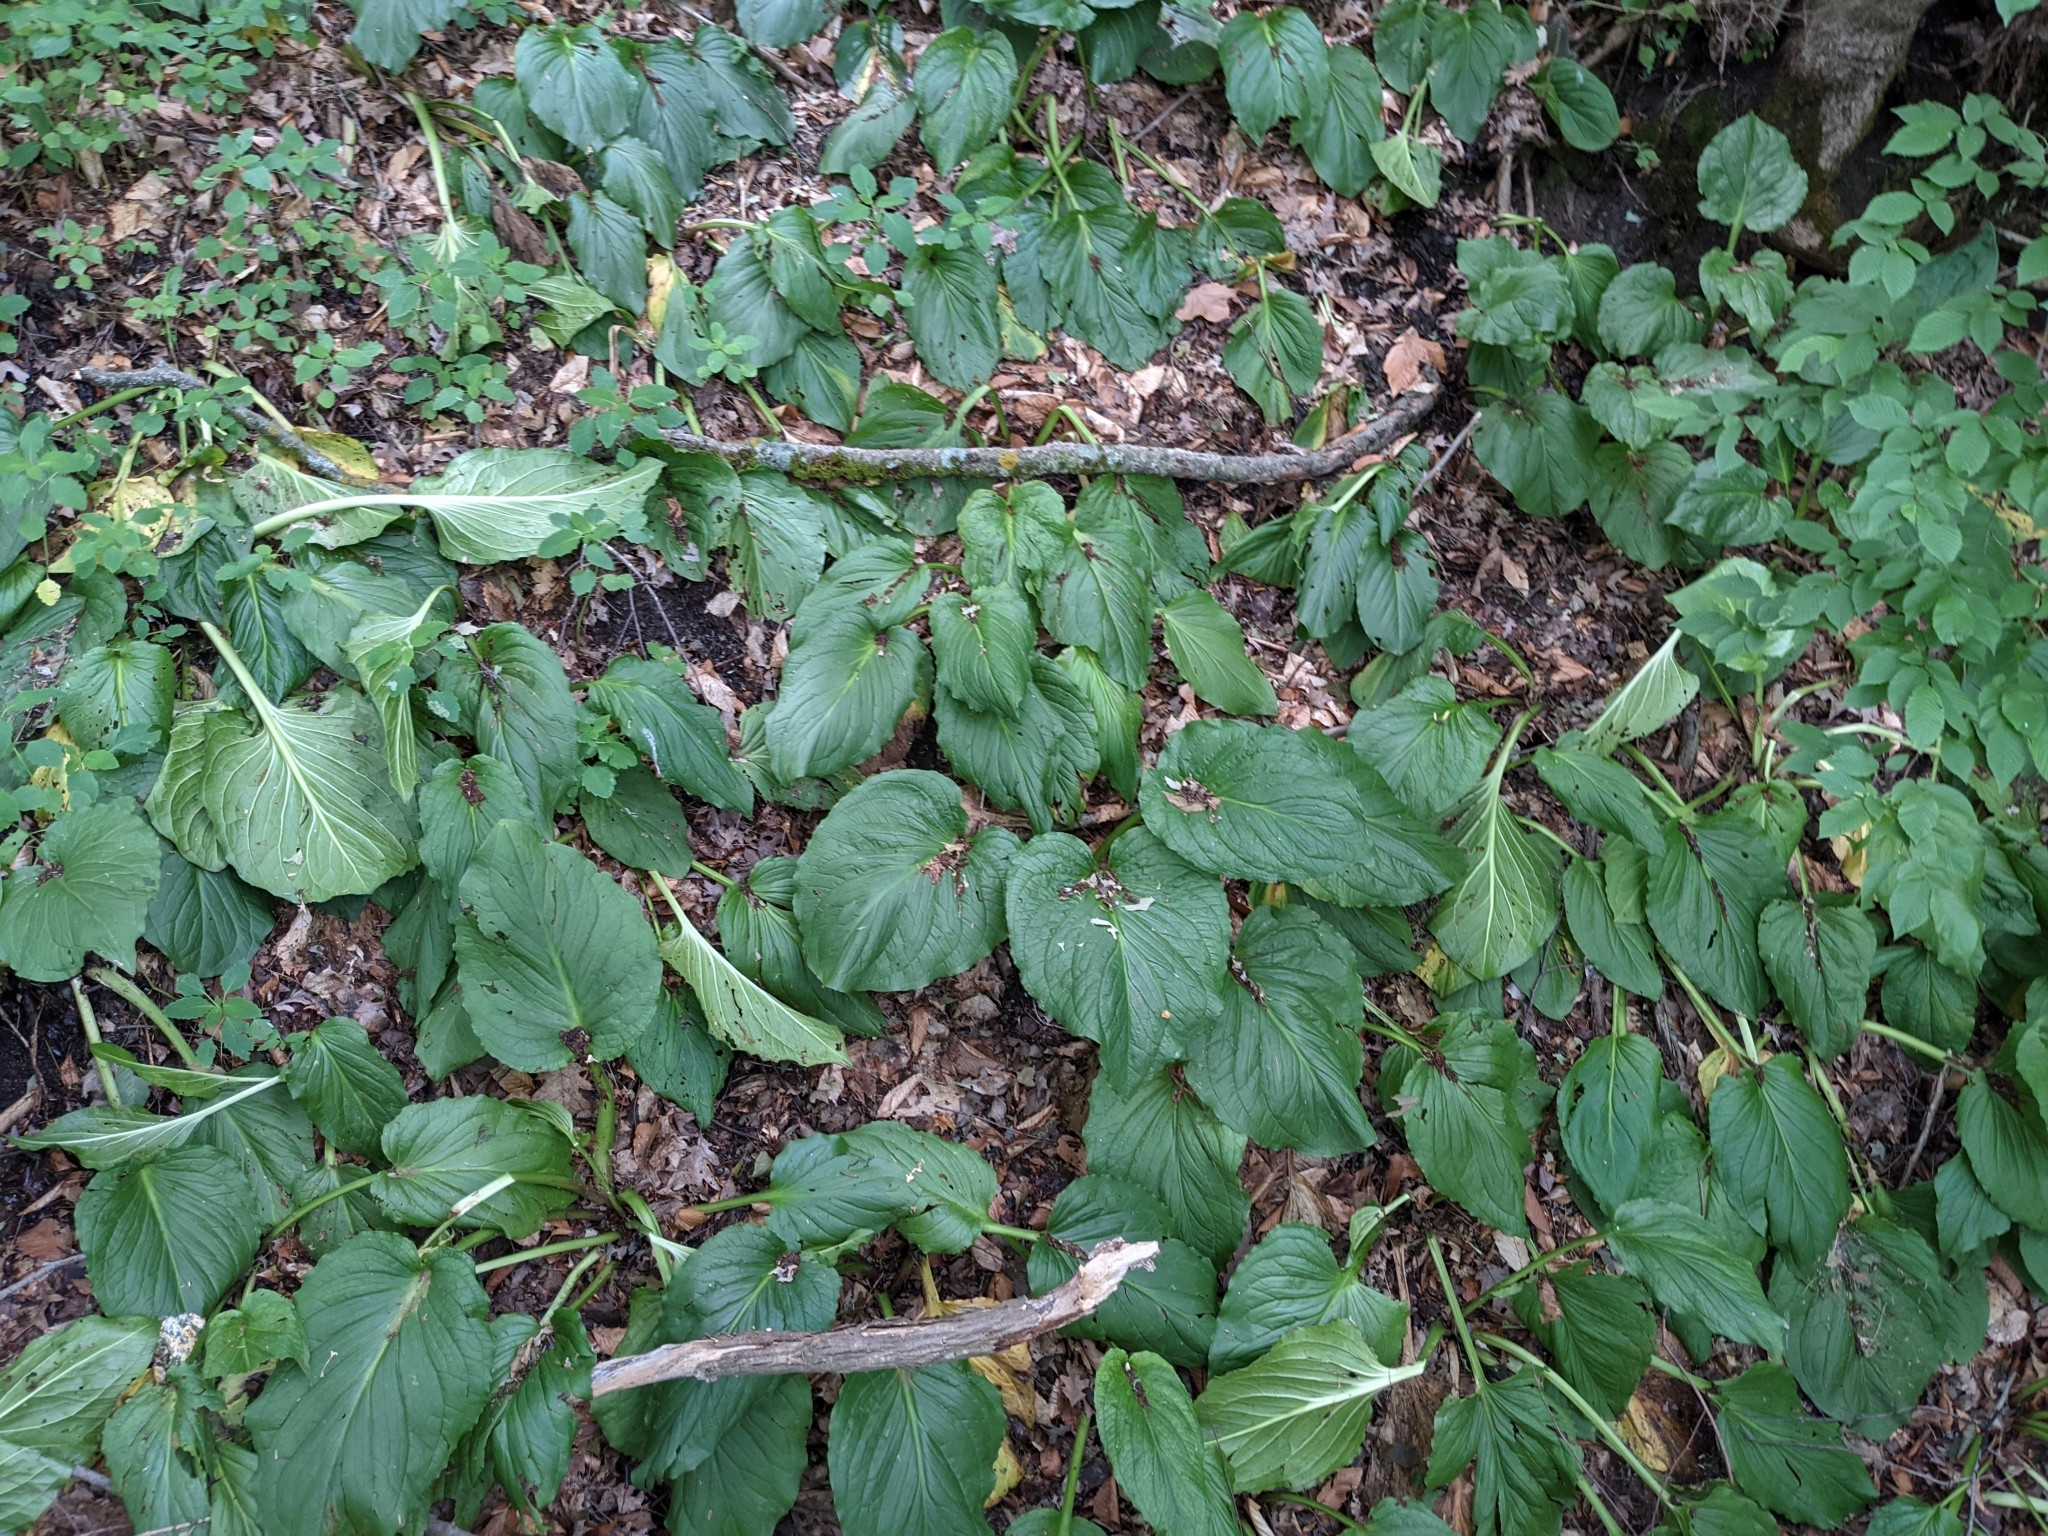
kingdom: Plantae
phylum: Tracheophyta
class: Liliopsida
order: Alismatales
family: Araceae
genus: Symplocarpus
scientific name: Symplocarpus foetidus
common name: Eastern skunk cabbage
